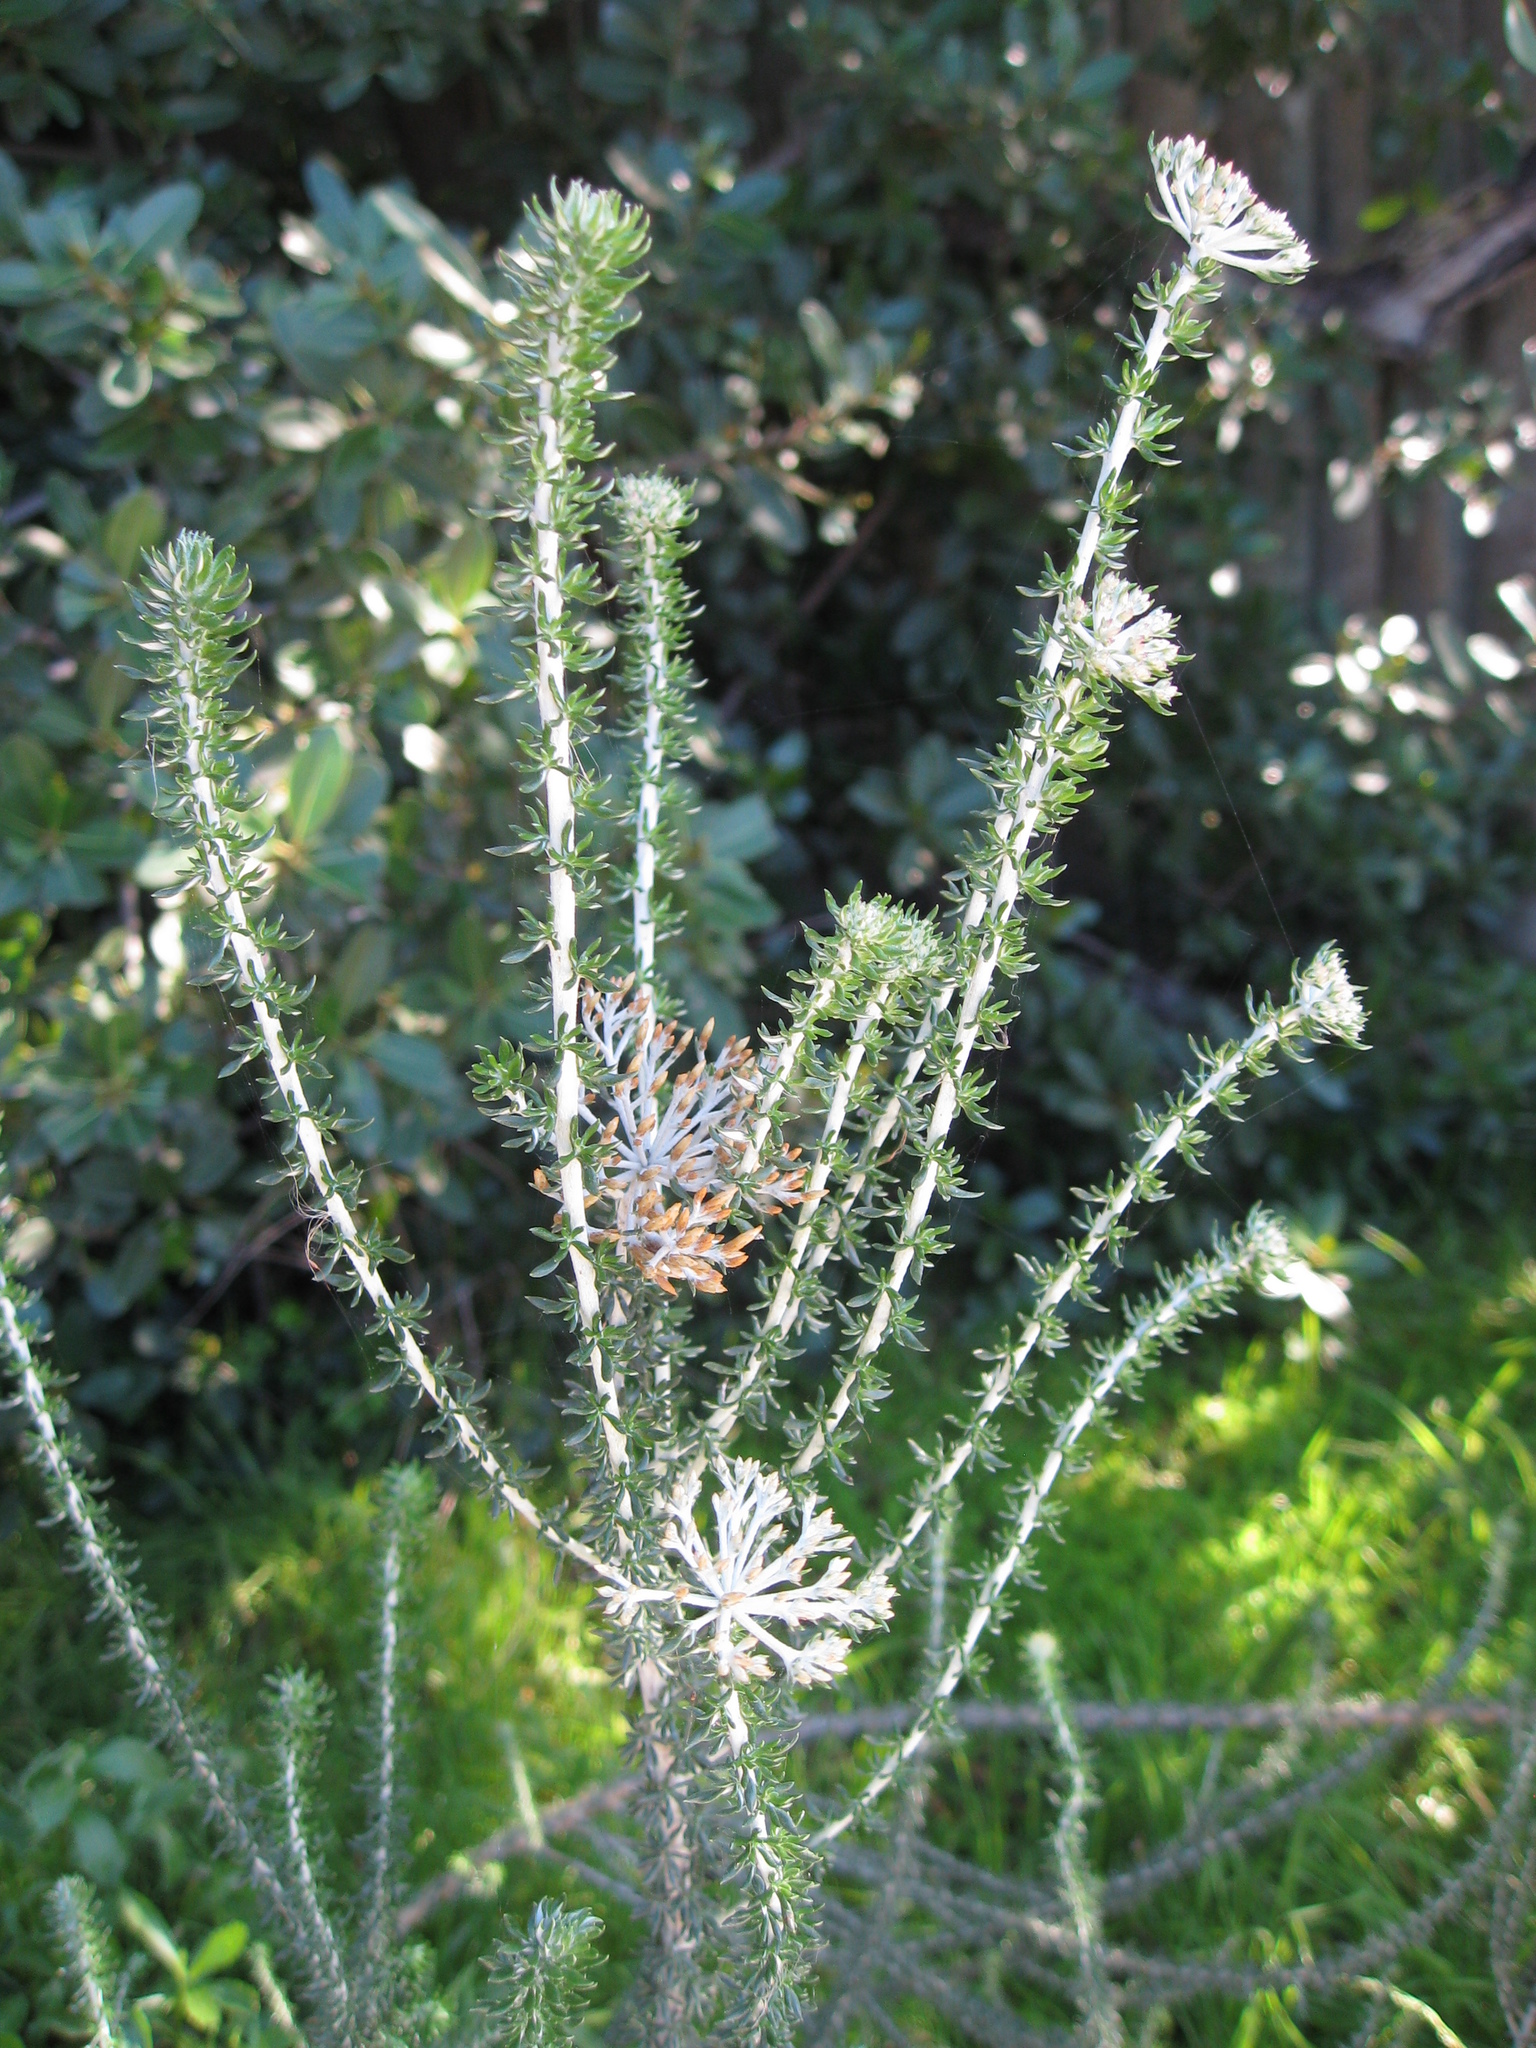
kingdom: Plantae
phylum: Tracheophyta
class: Magnoliopsida
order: Asterales
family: Asteraceae
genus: Metalasia
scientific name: Metalasia densa
